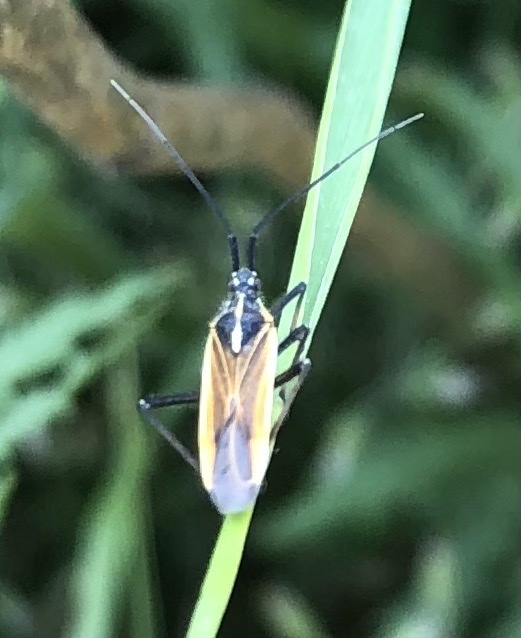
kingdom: Animalia
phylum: Arthropoda
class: Insecta
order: Hemiptera
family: Miridae
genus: Leptopterna
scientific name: Leptopterna dolabrata
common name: Meadow plant bug
